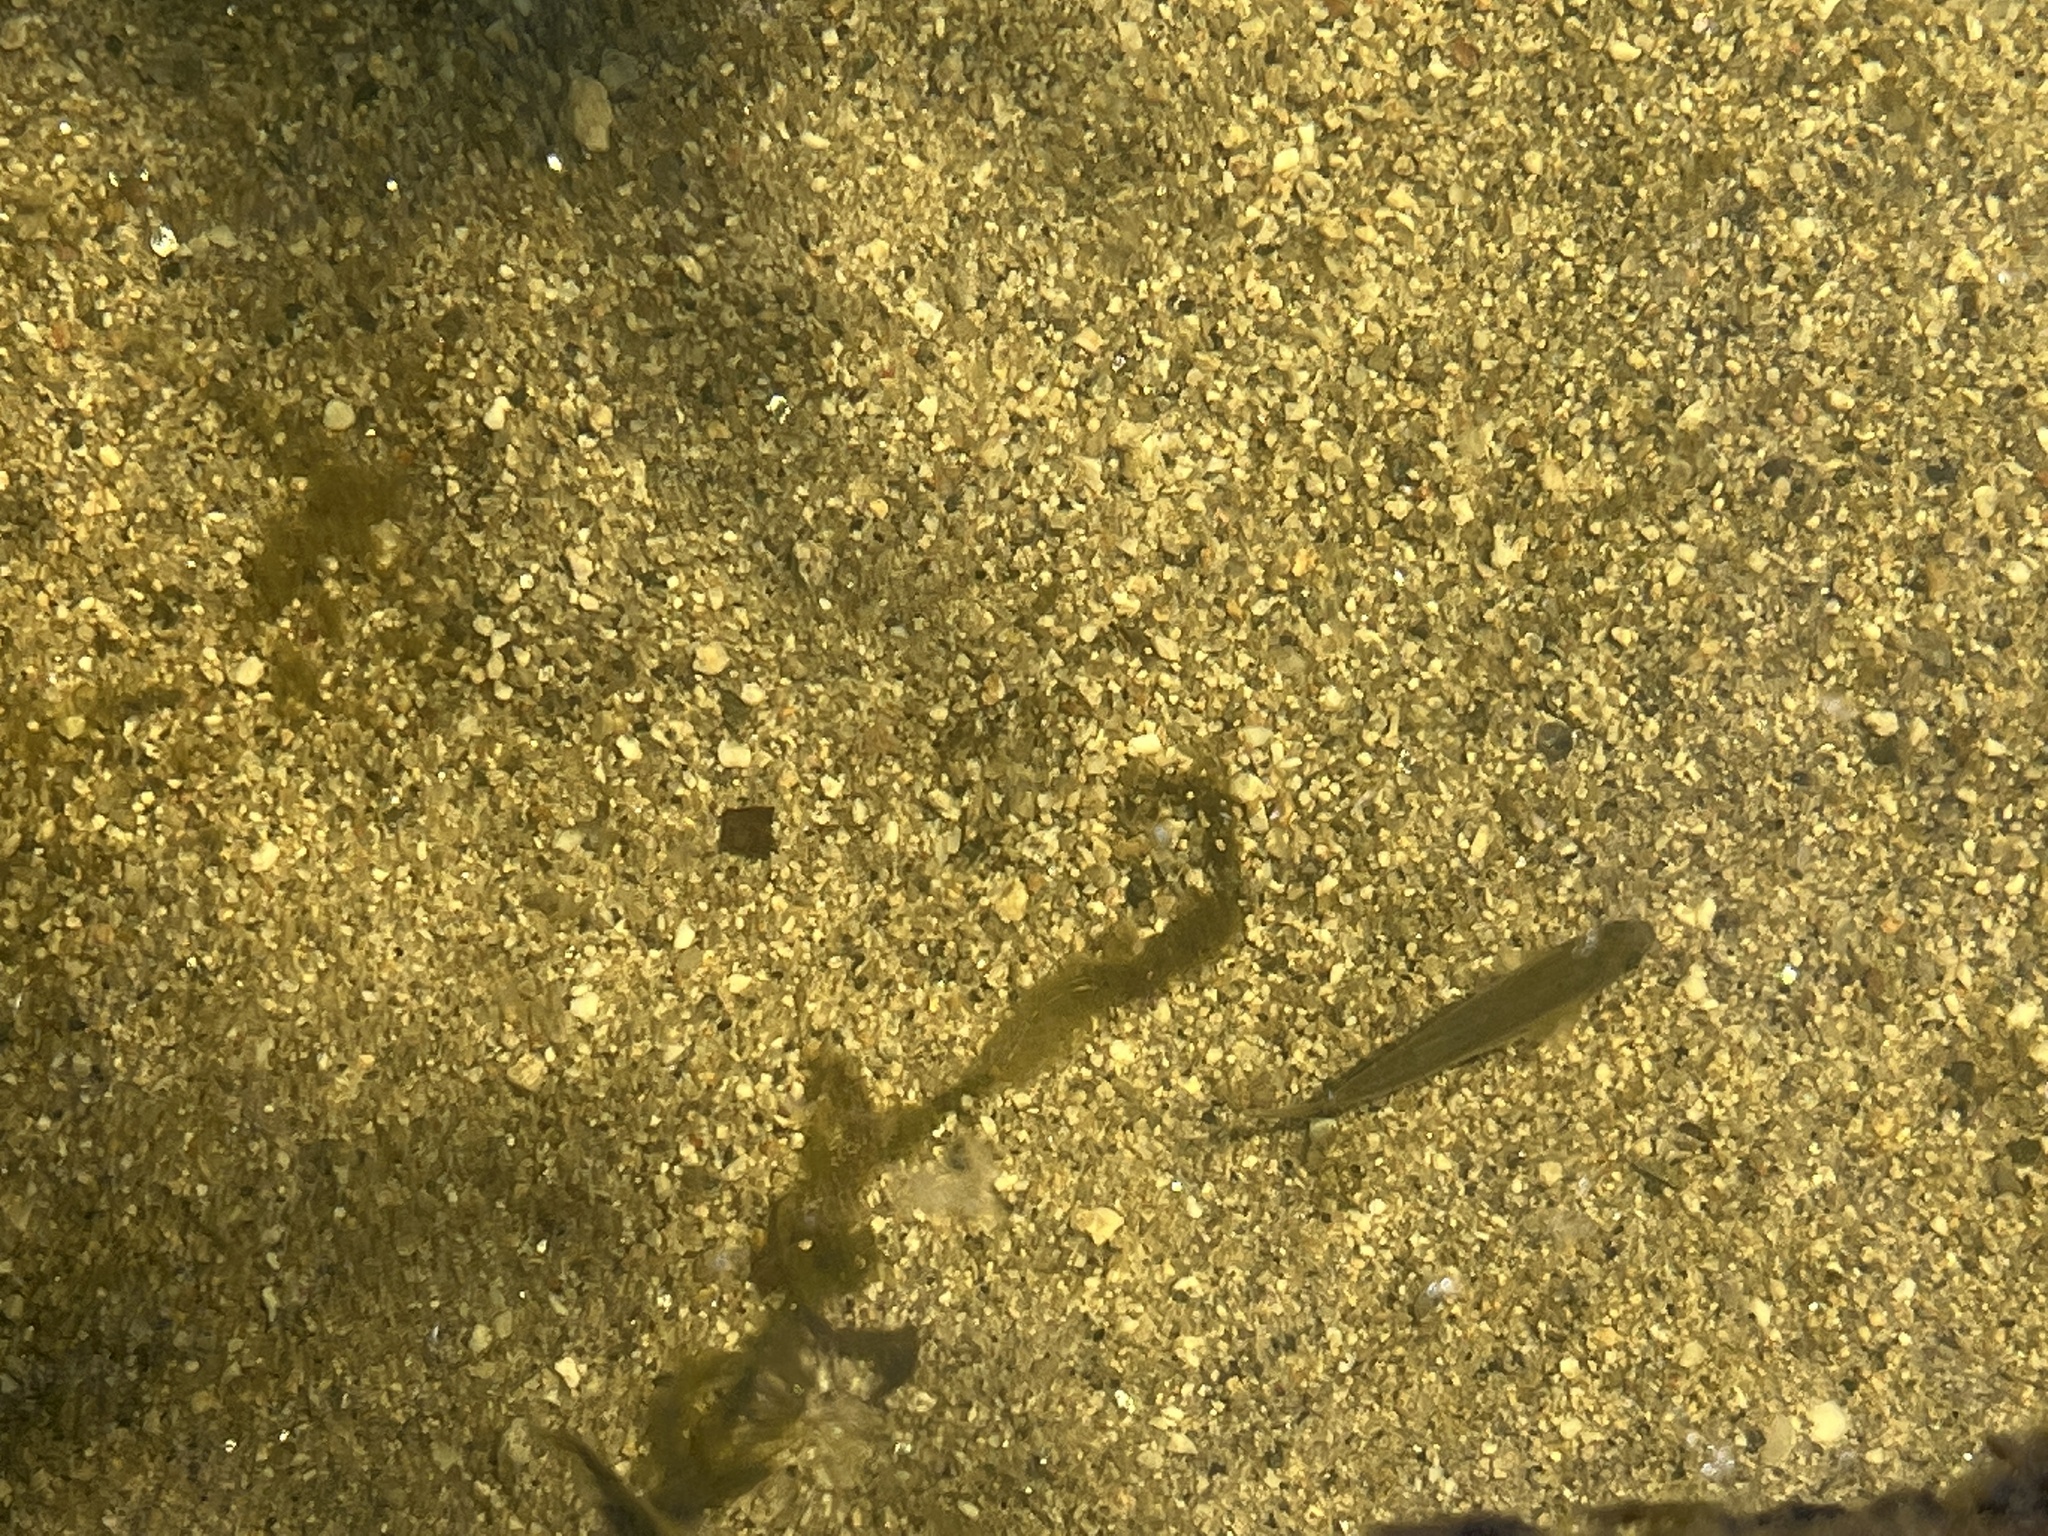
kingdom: Animalia
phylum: Chordata
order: Cypriniformes
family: Cyprinidae
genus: Gila
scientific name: Gila robusta
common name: Roundtail chub
